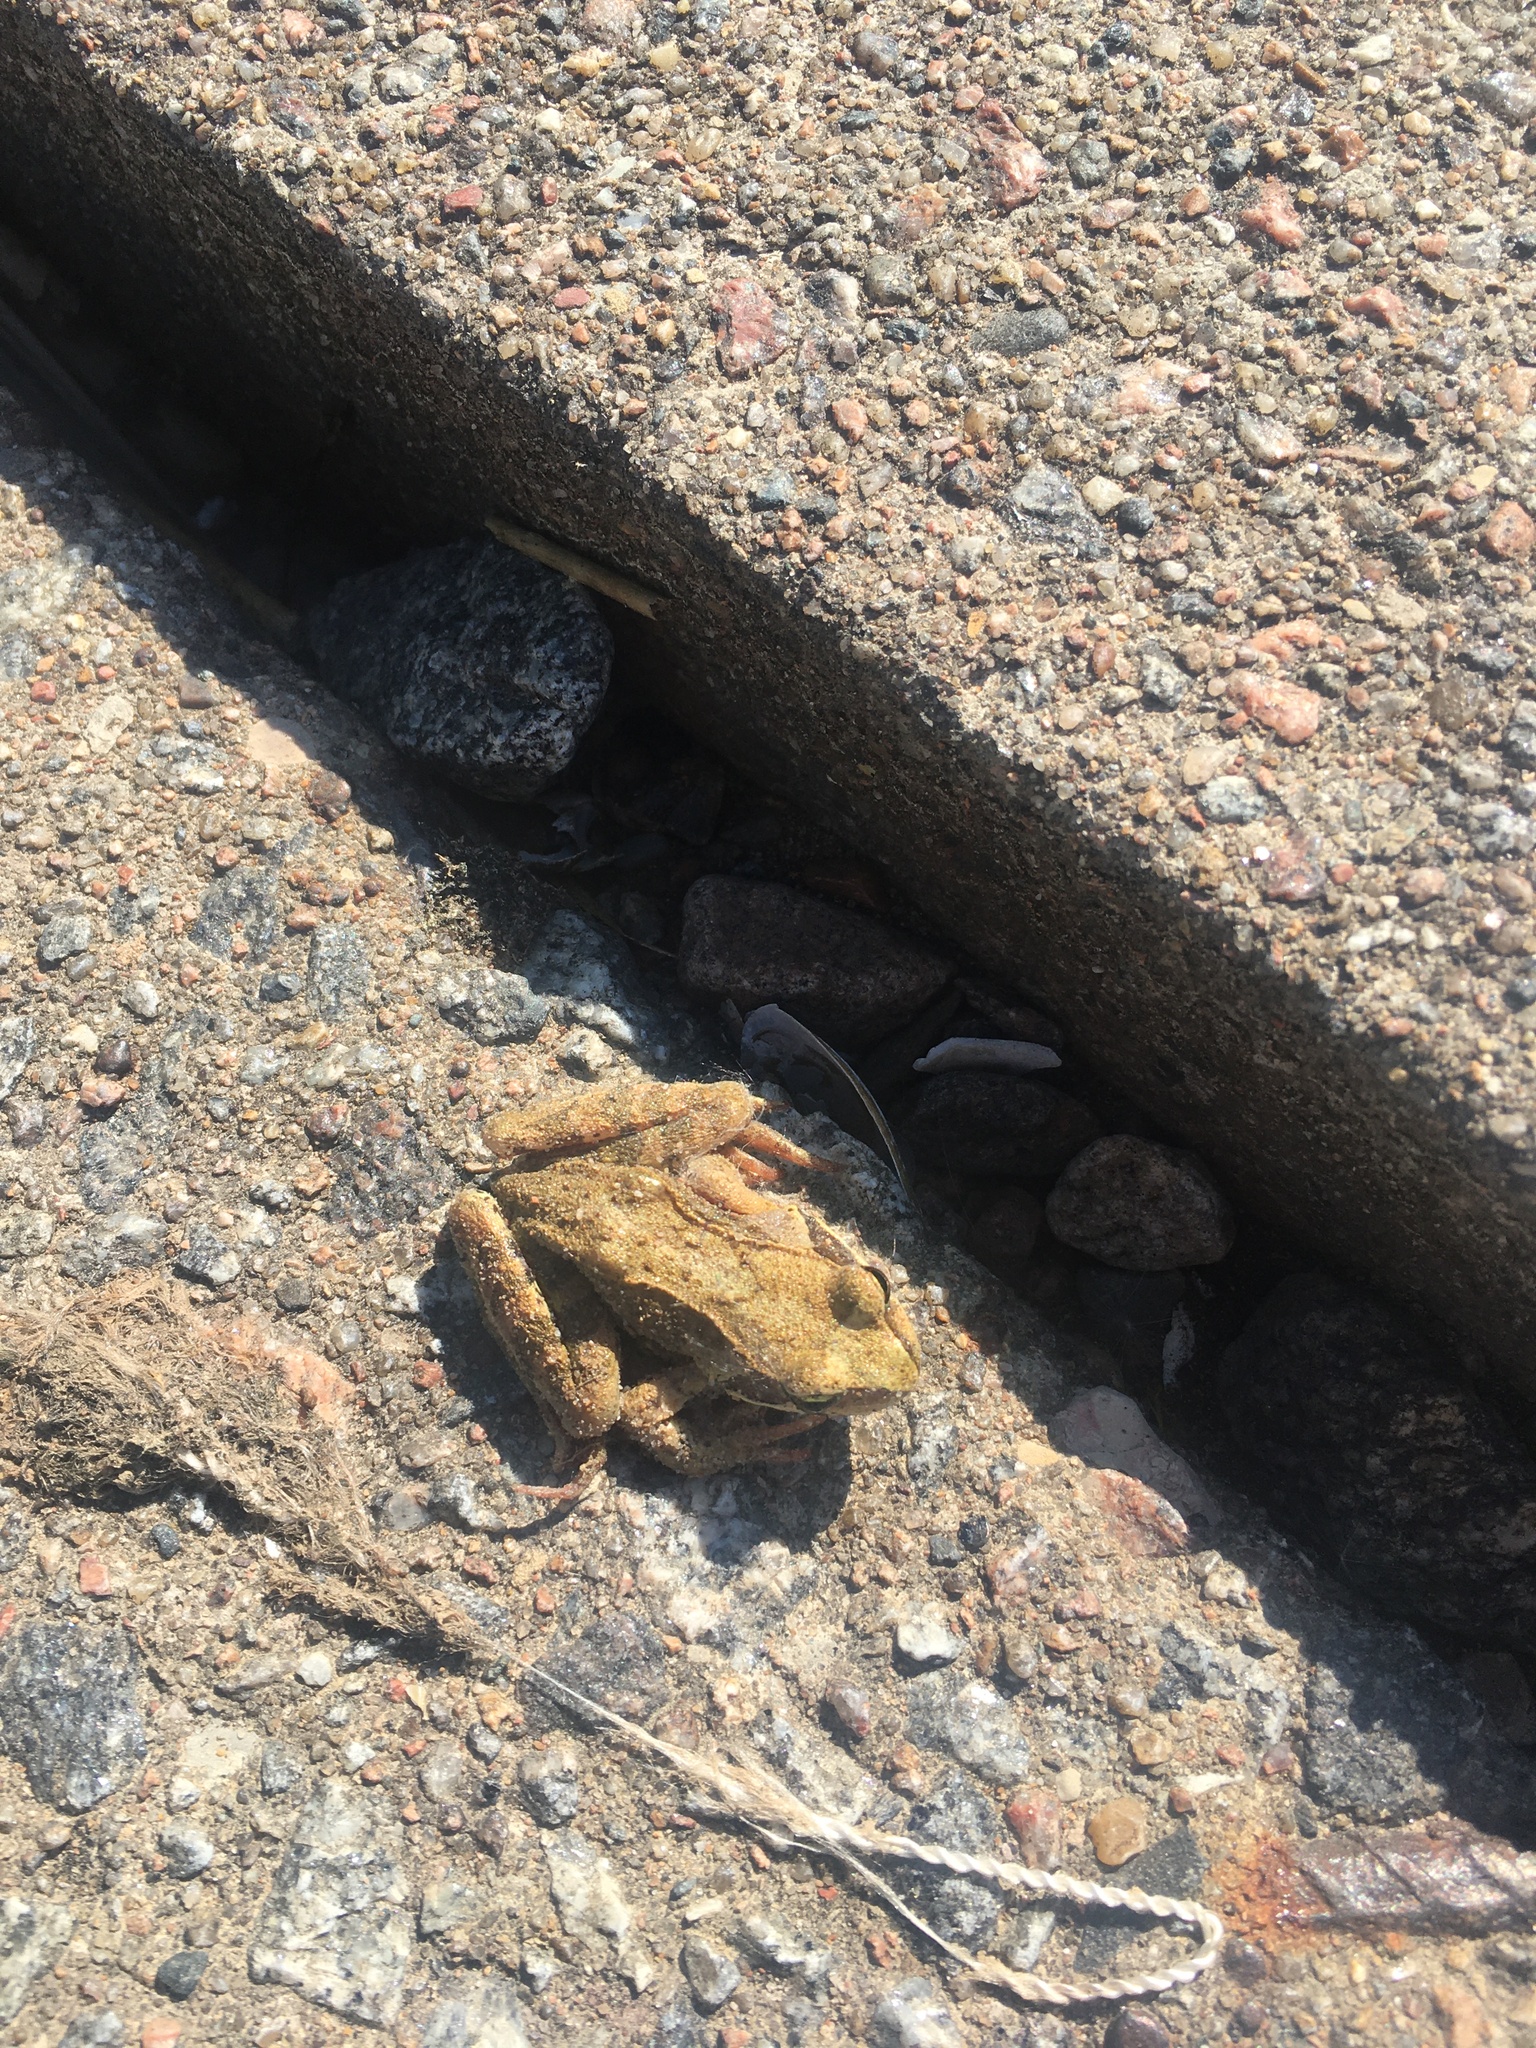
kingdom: Animalia
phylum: Chordata
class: Amphibia
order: Anura
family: Ranidae
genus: Rana
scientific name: Rana temporaria
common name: Common frog
